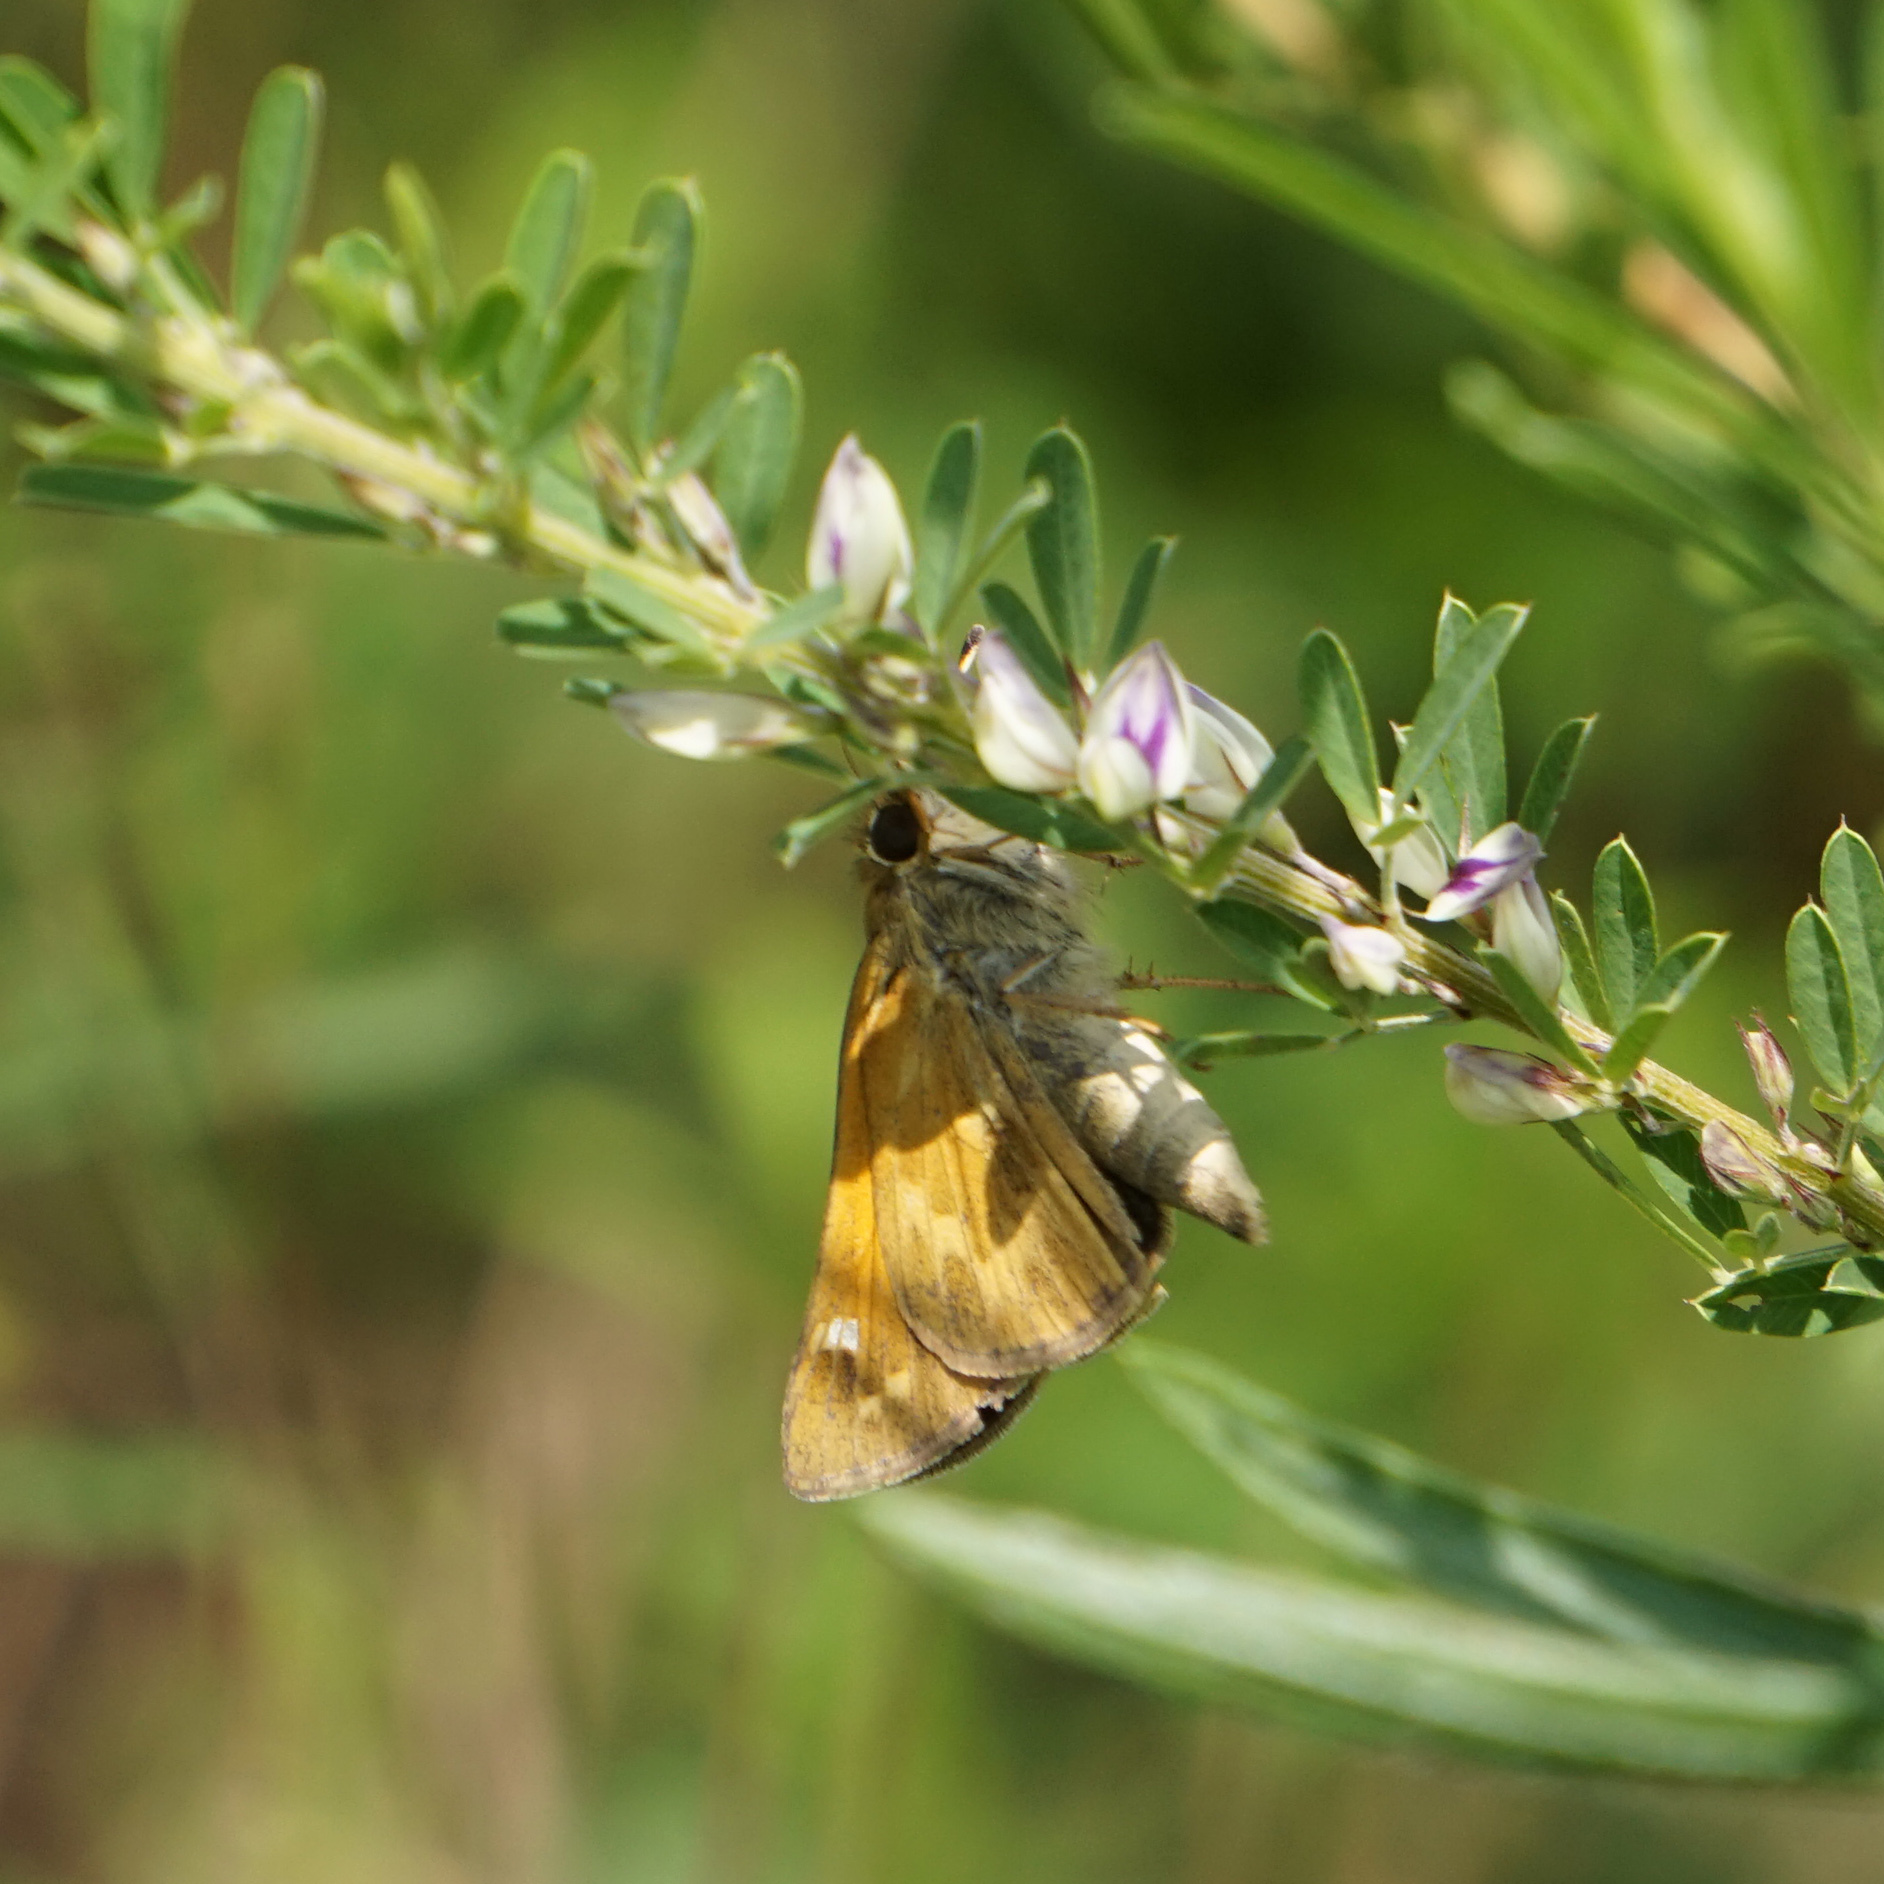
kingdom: Animalia
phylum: Arthropoda
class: Insecta
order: Lepidoptera
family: Hesperiidae
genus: Atalopedes
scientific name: Atalopedes
